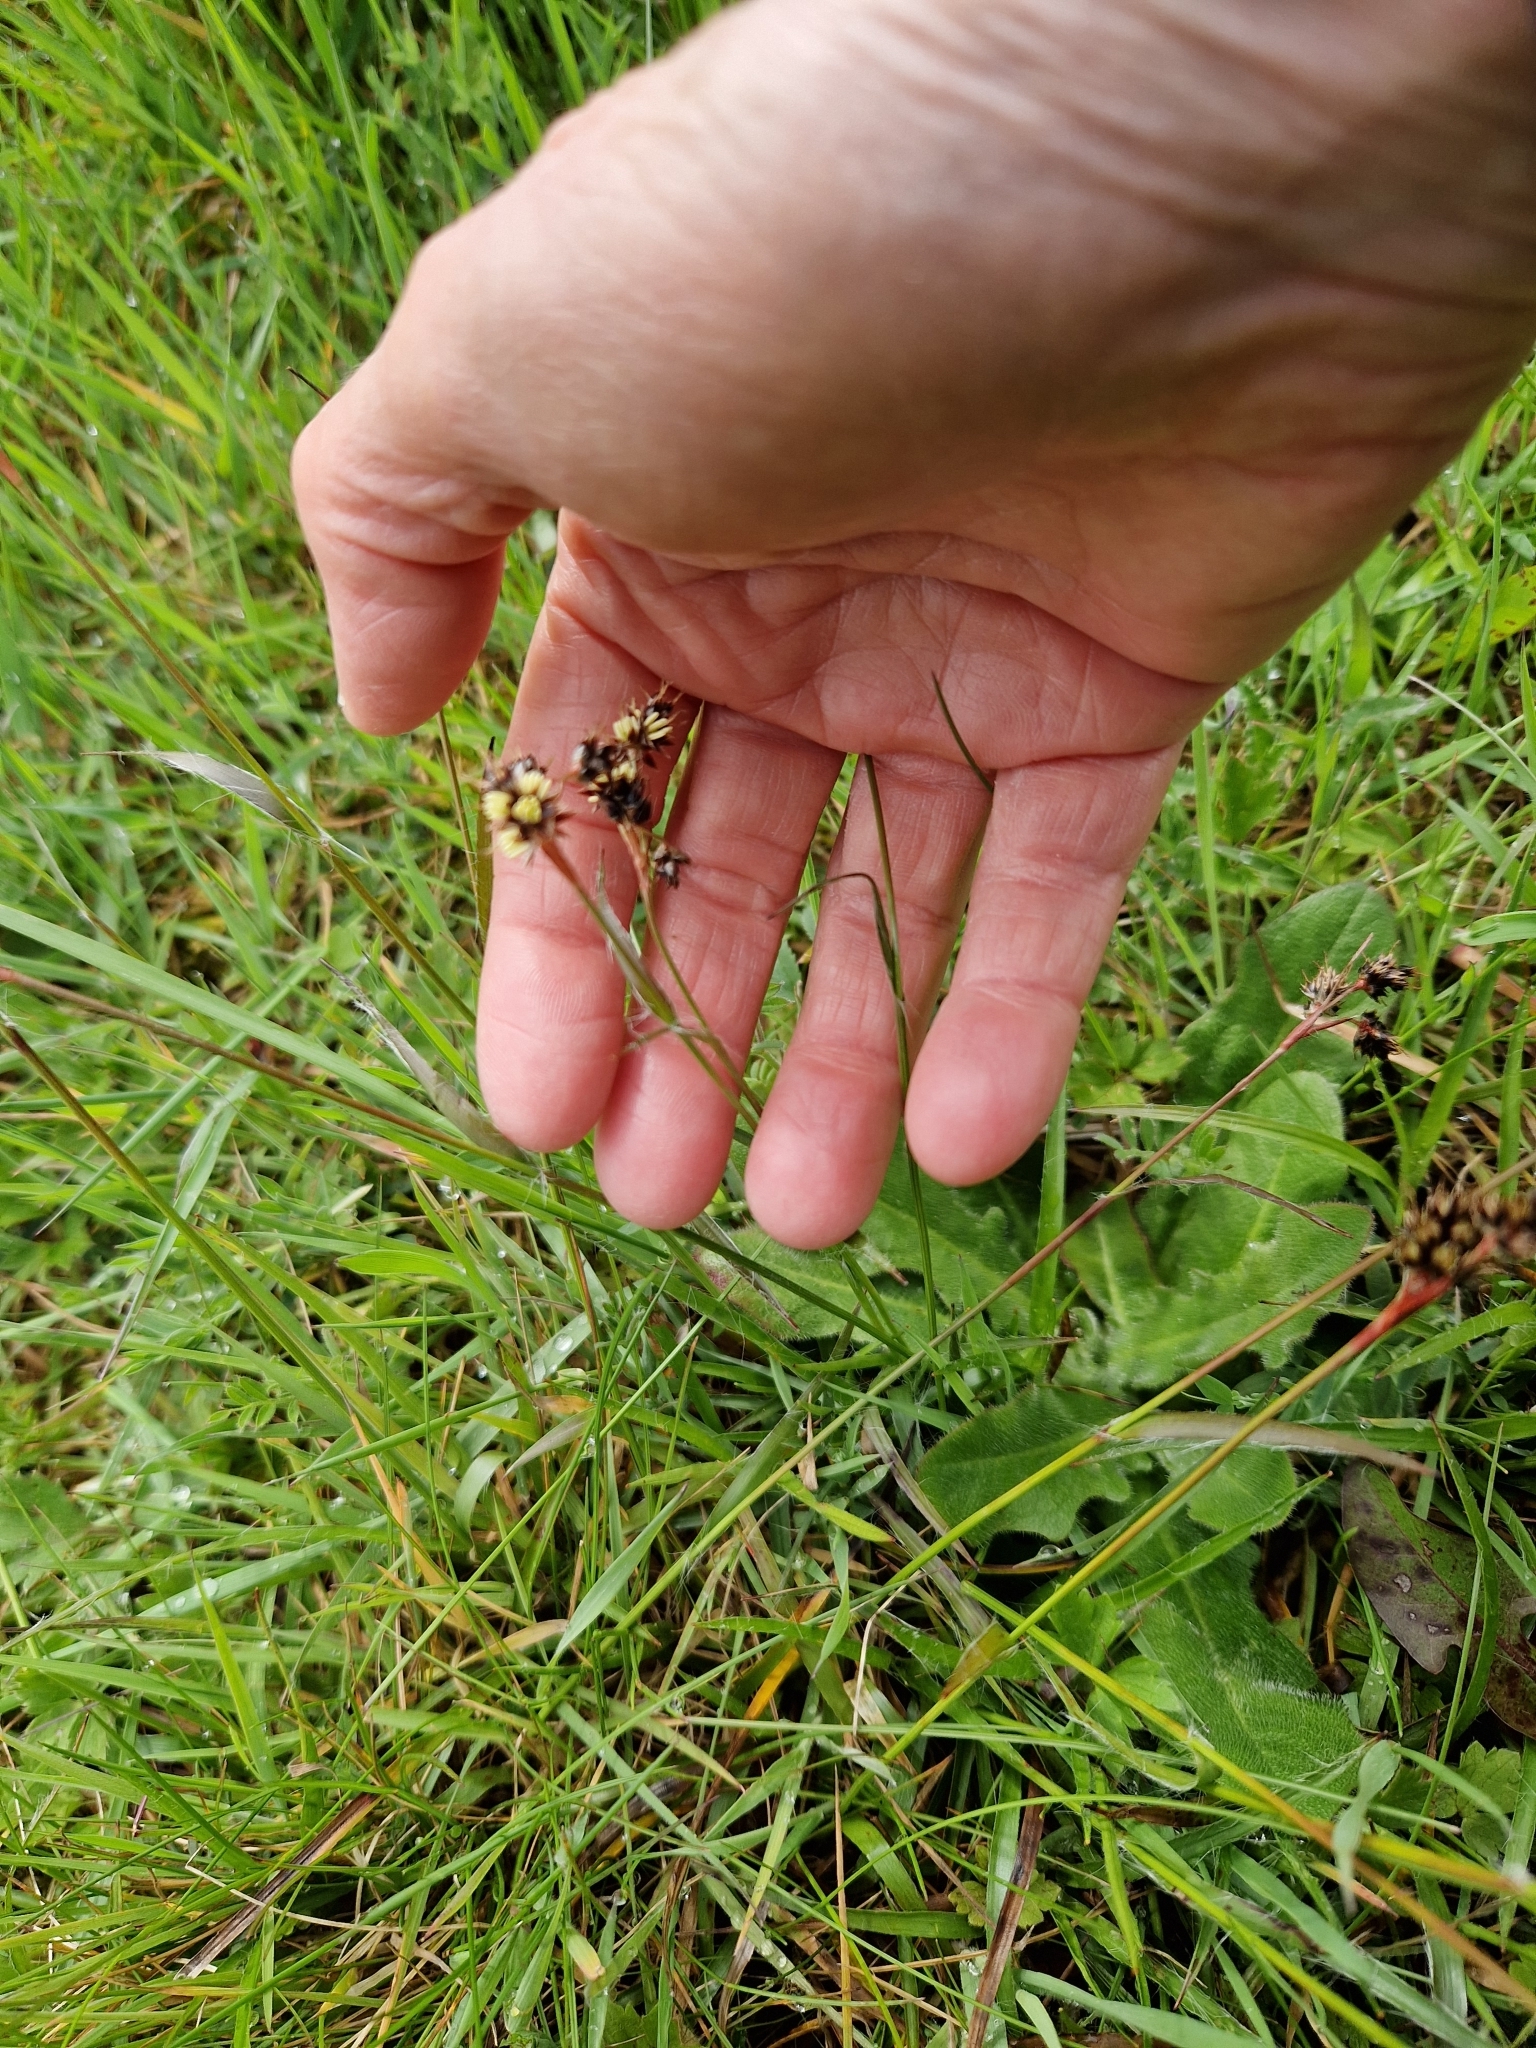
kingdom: Plantae
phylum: Tracheophyta
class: Liliopsida
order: Poales
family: Juncaceae
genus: Luzula
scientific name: Luzula campestris
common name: Field wood-rush
